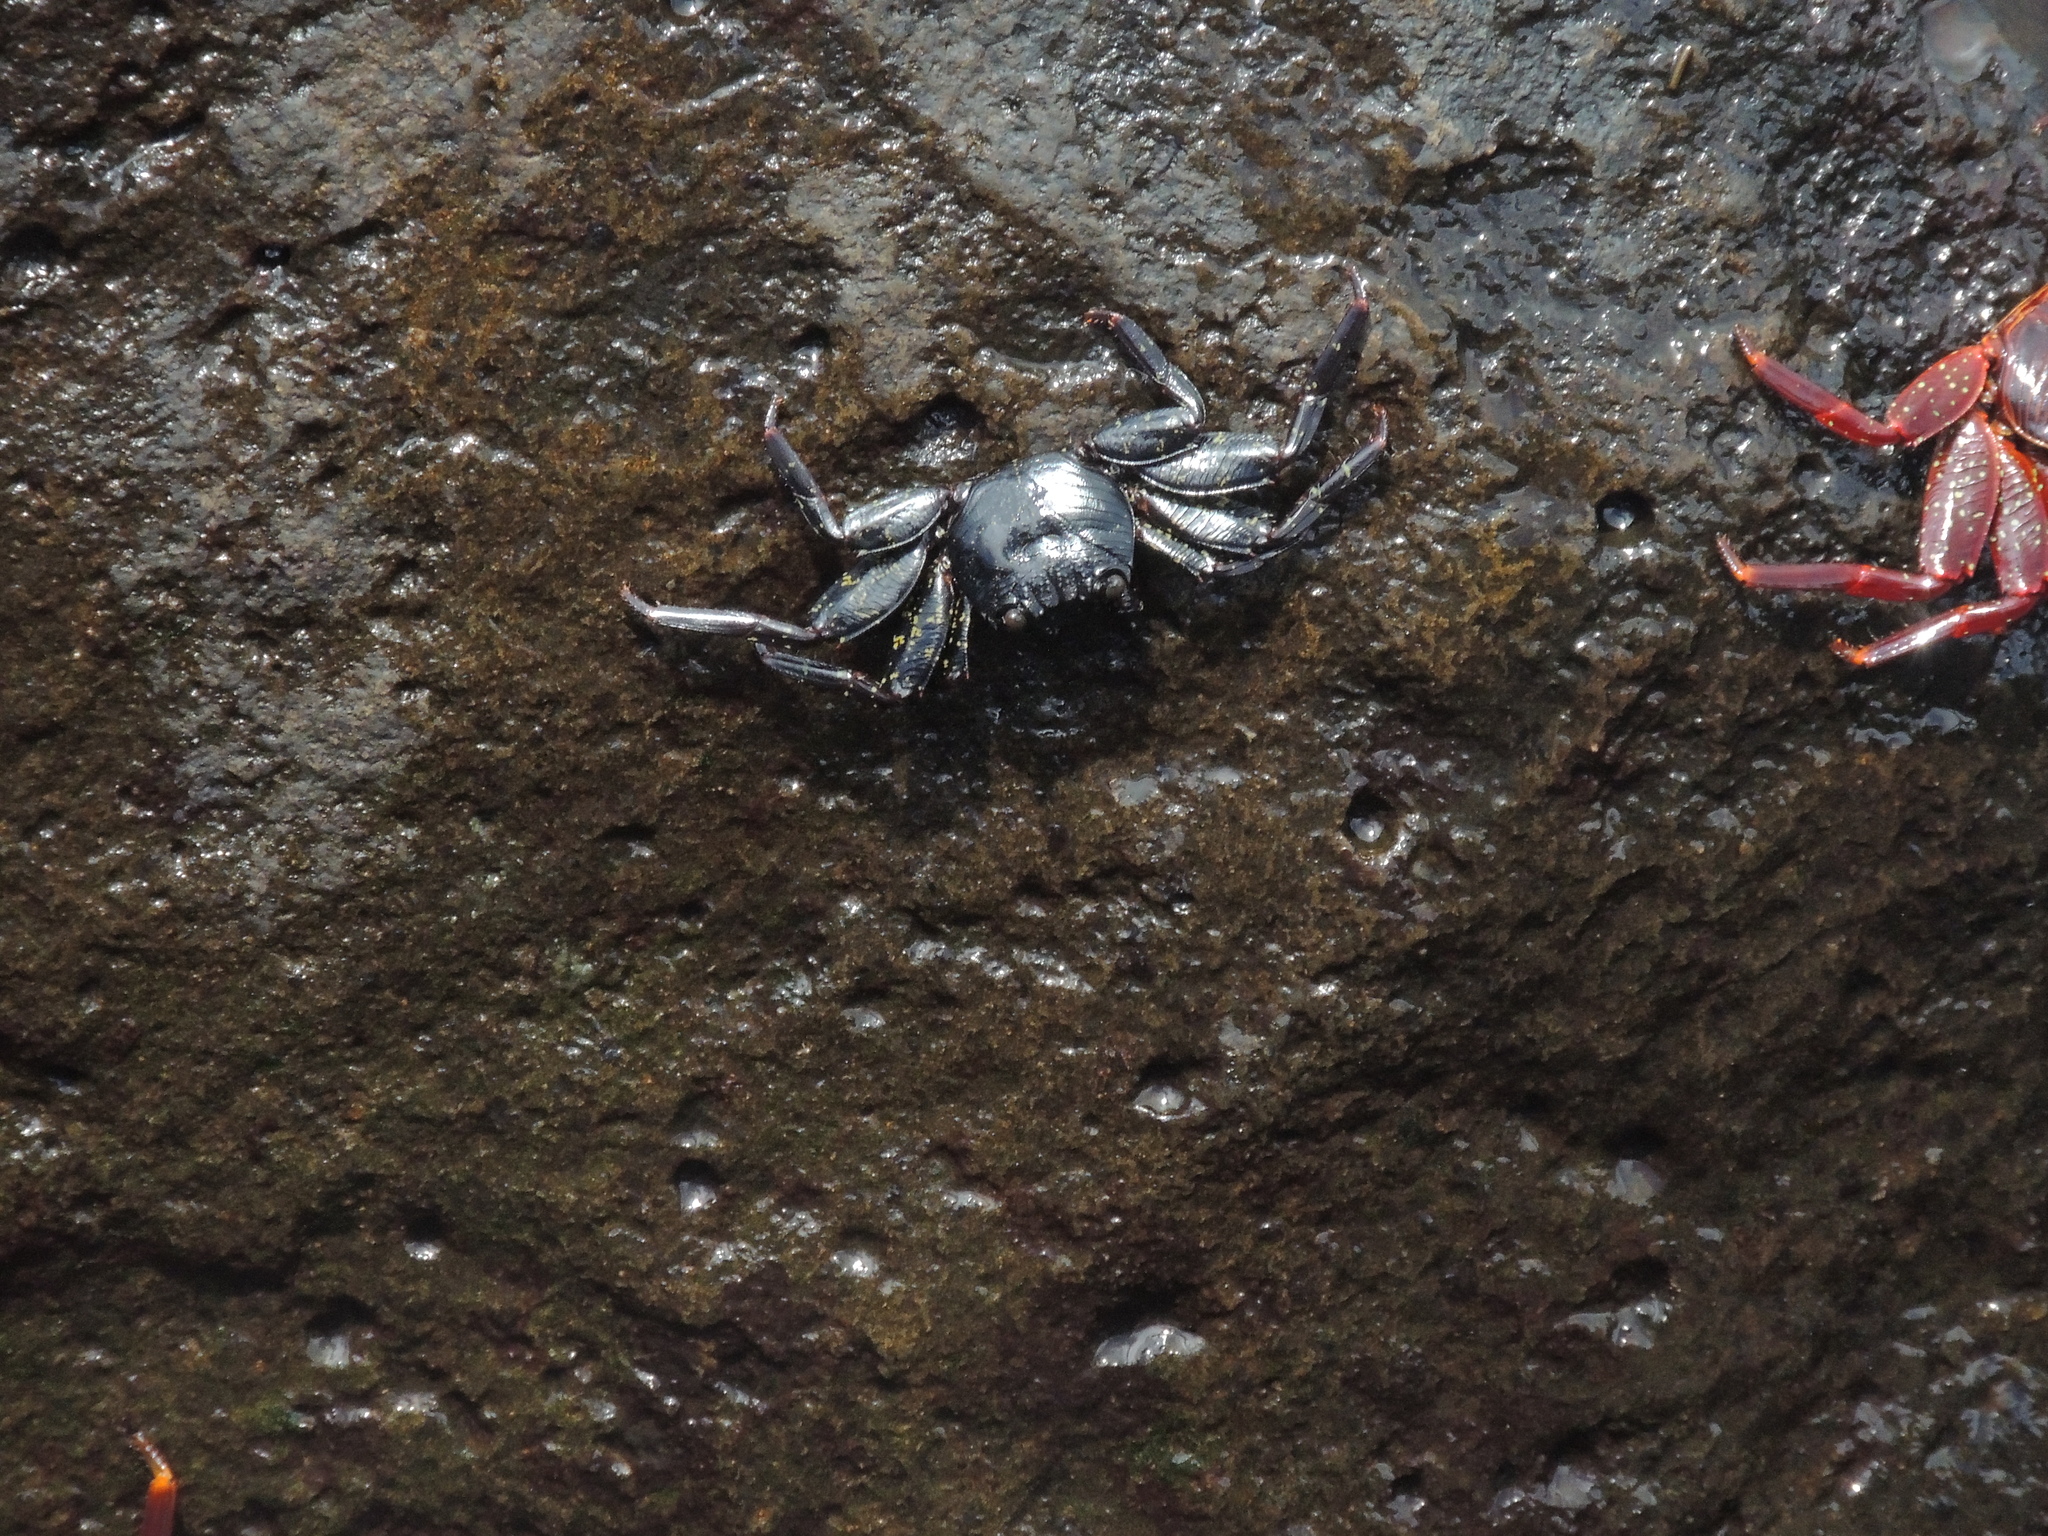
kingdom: Animalia
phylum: Arthropoda
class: Malacostraca
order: Decapoda
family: Grapsidae
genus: Grapsus
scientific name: Grapsus grapsus
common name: Sally lightfoot
